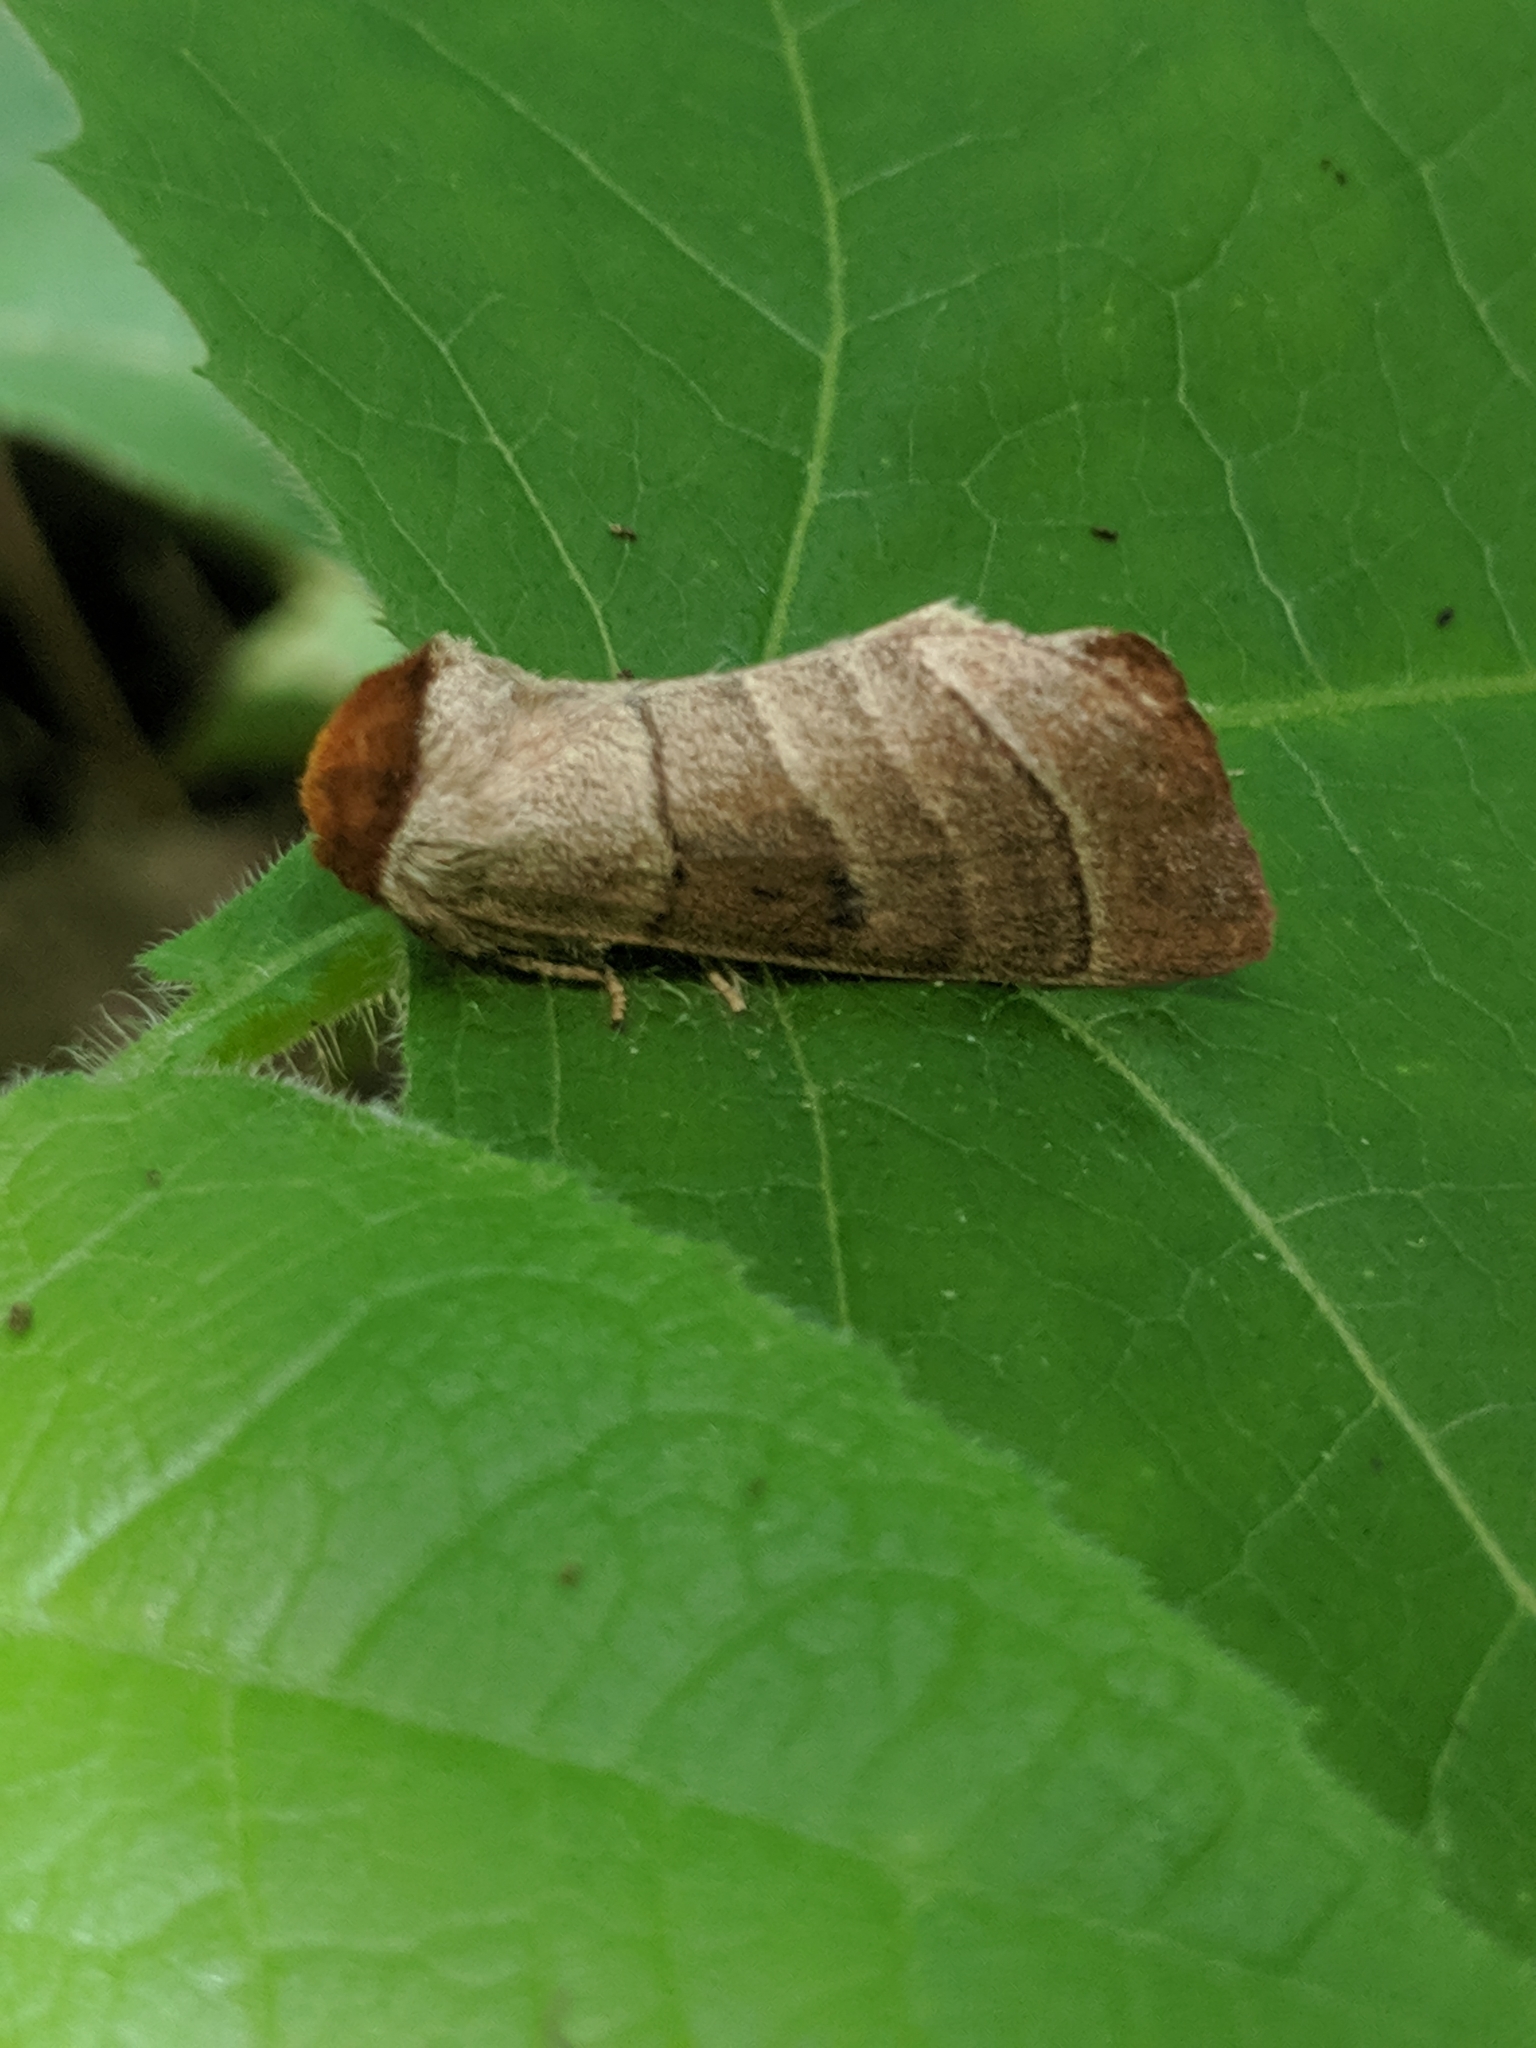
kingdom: Animalia
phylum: Arthropoda
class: Insecta
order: Lepidoptera
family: Notodontidae
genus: Datana
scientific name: Datana integerrima
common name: Walnut caterpillar
